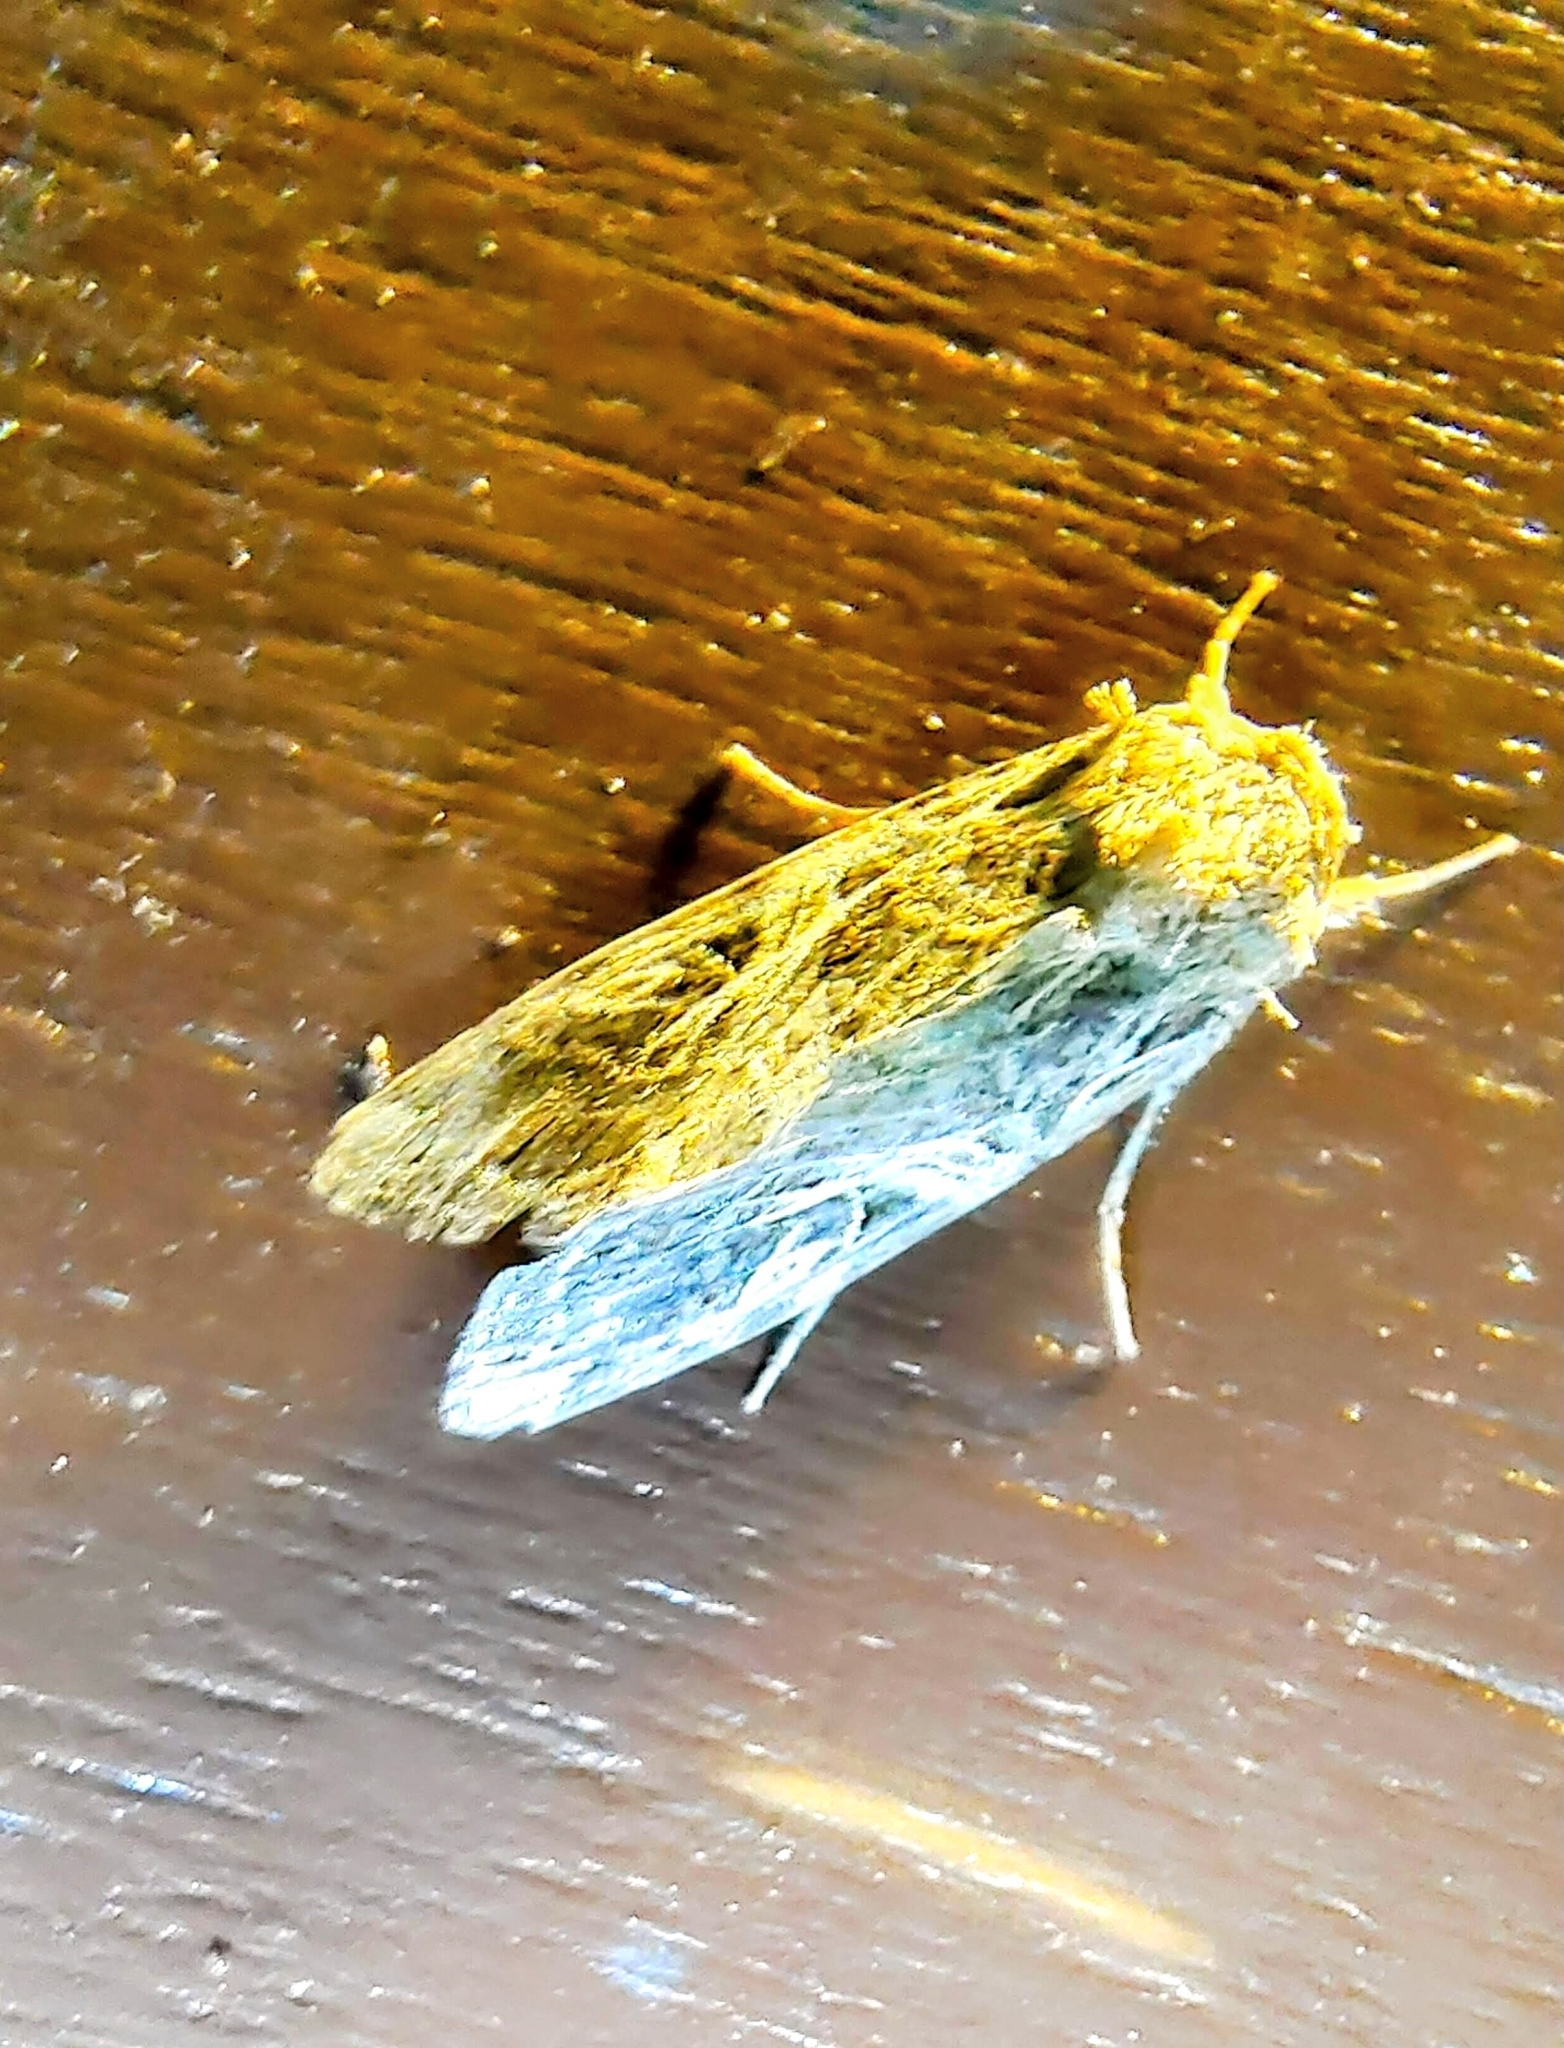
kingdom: Animalia
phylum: Arthropoda
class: Insecta
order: Lepidoptera
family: Noctuidae
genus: Spodoptera
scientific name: Spodoptera litura
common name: Asian cotton leafworm
